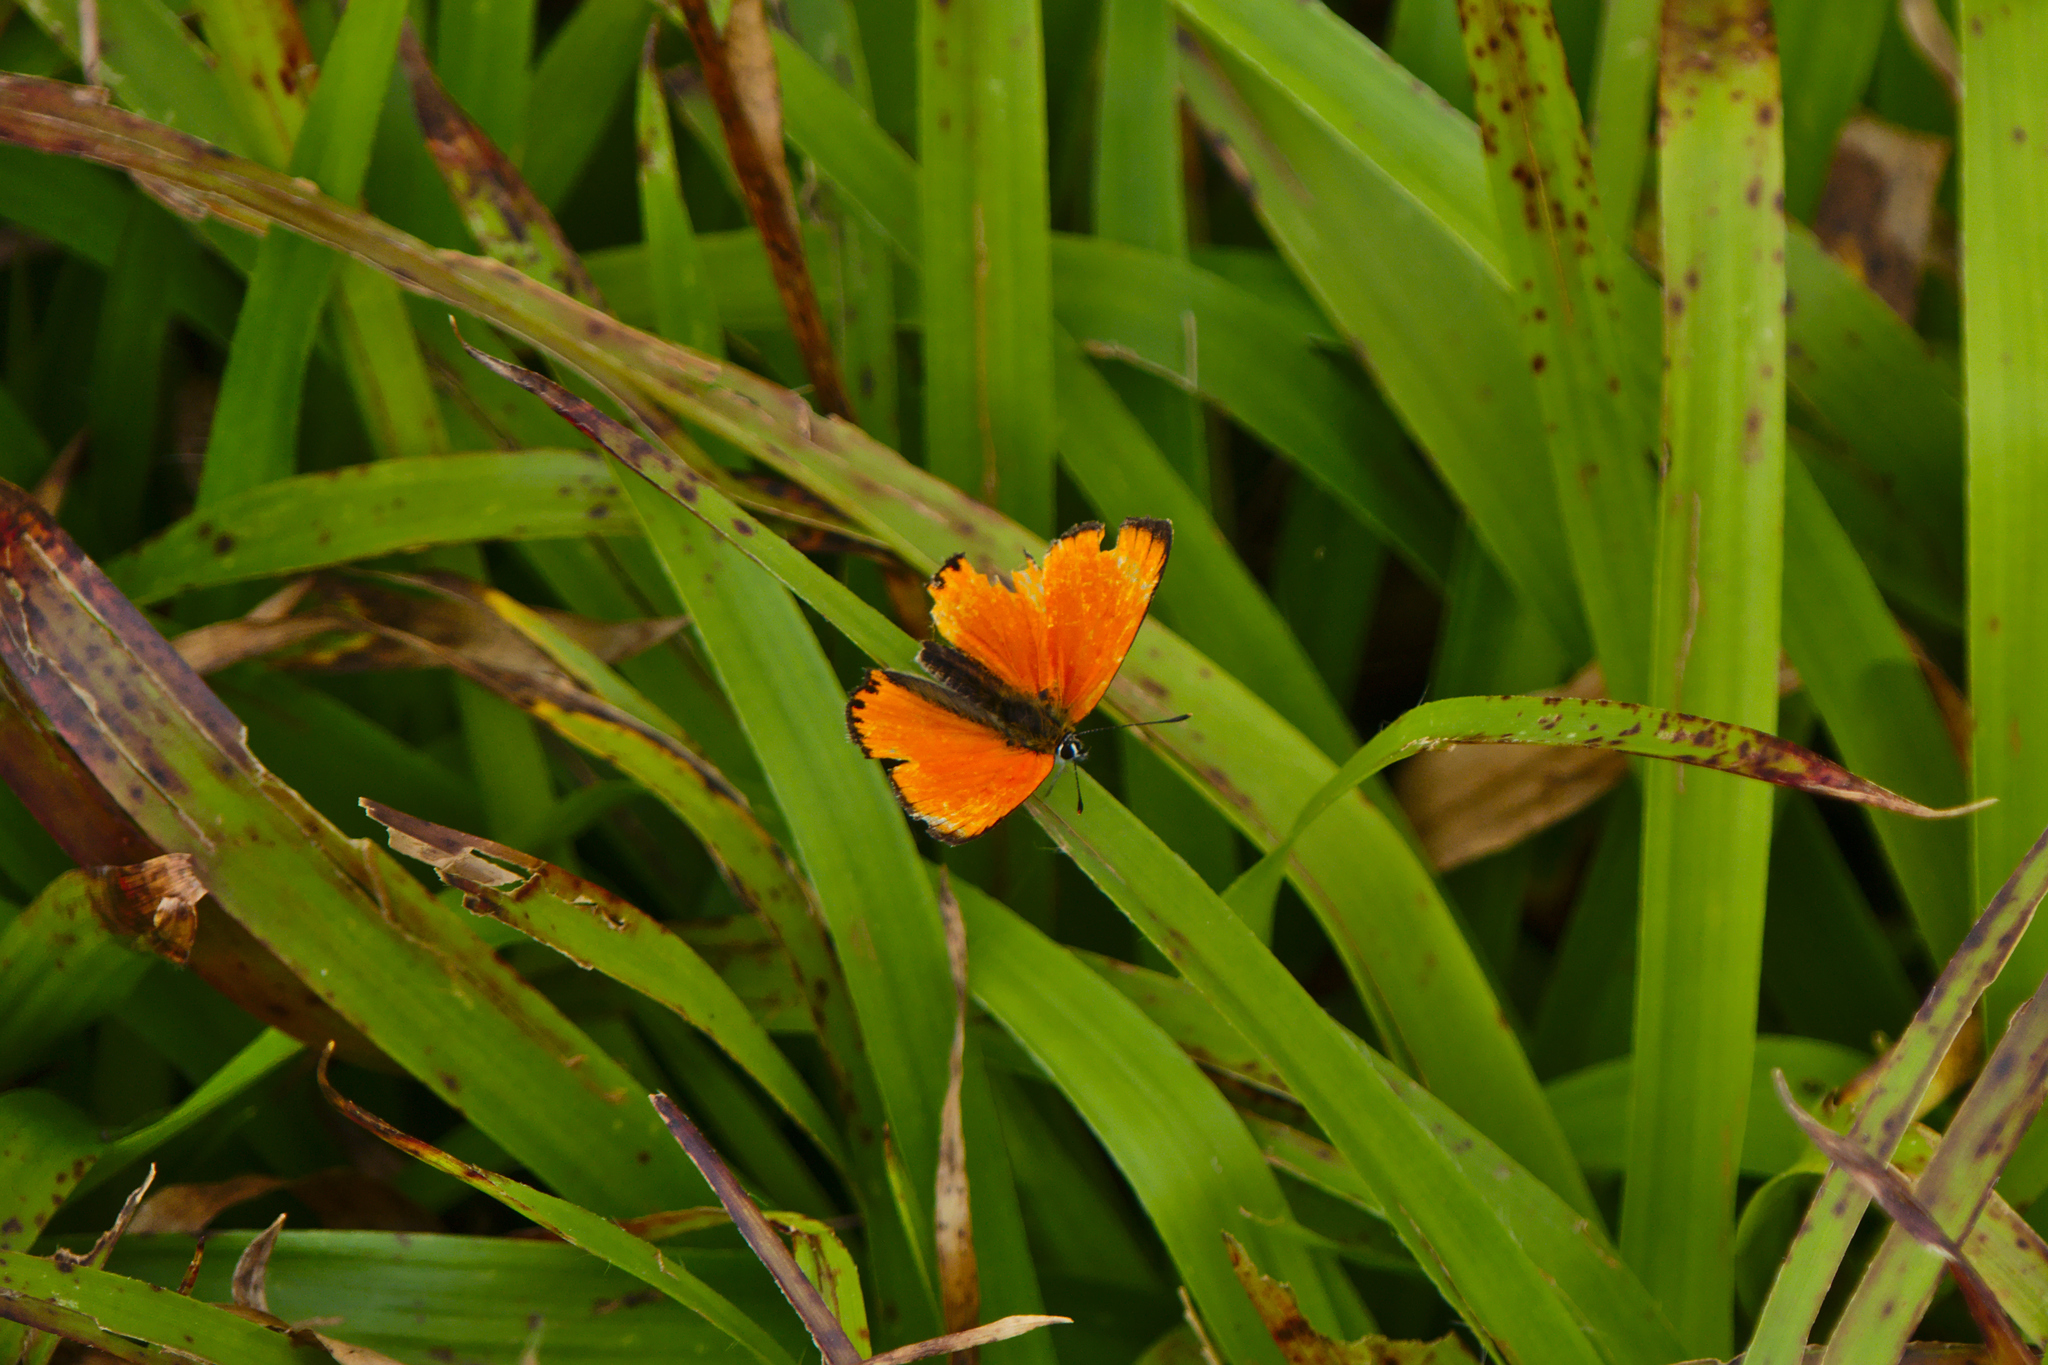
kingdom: Animalia
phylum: Arthropoda
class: Insecta
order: Lepidoptera
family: Lycaenidae
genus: Lycaena
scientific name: Lycaena virgaureae
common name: Scarce copper
